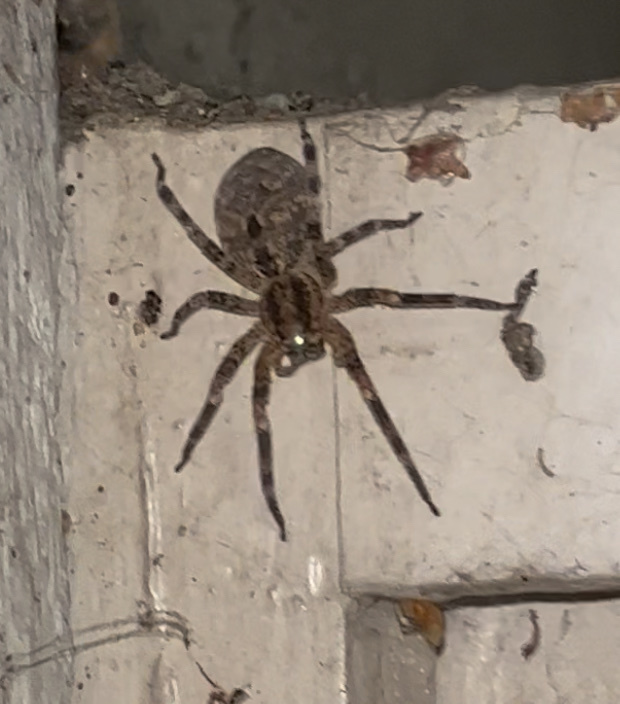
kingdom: Animalia
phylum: Arthropoda
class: Arachnida
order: Araneae
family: Zoropsidae
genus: Zoropsis
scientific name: Zoropsis spinimana
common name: Zoropsid spider
